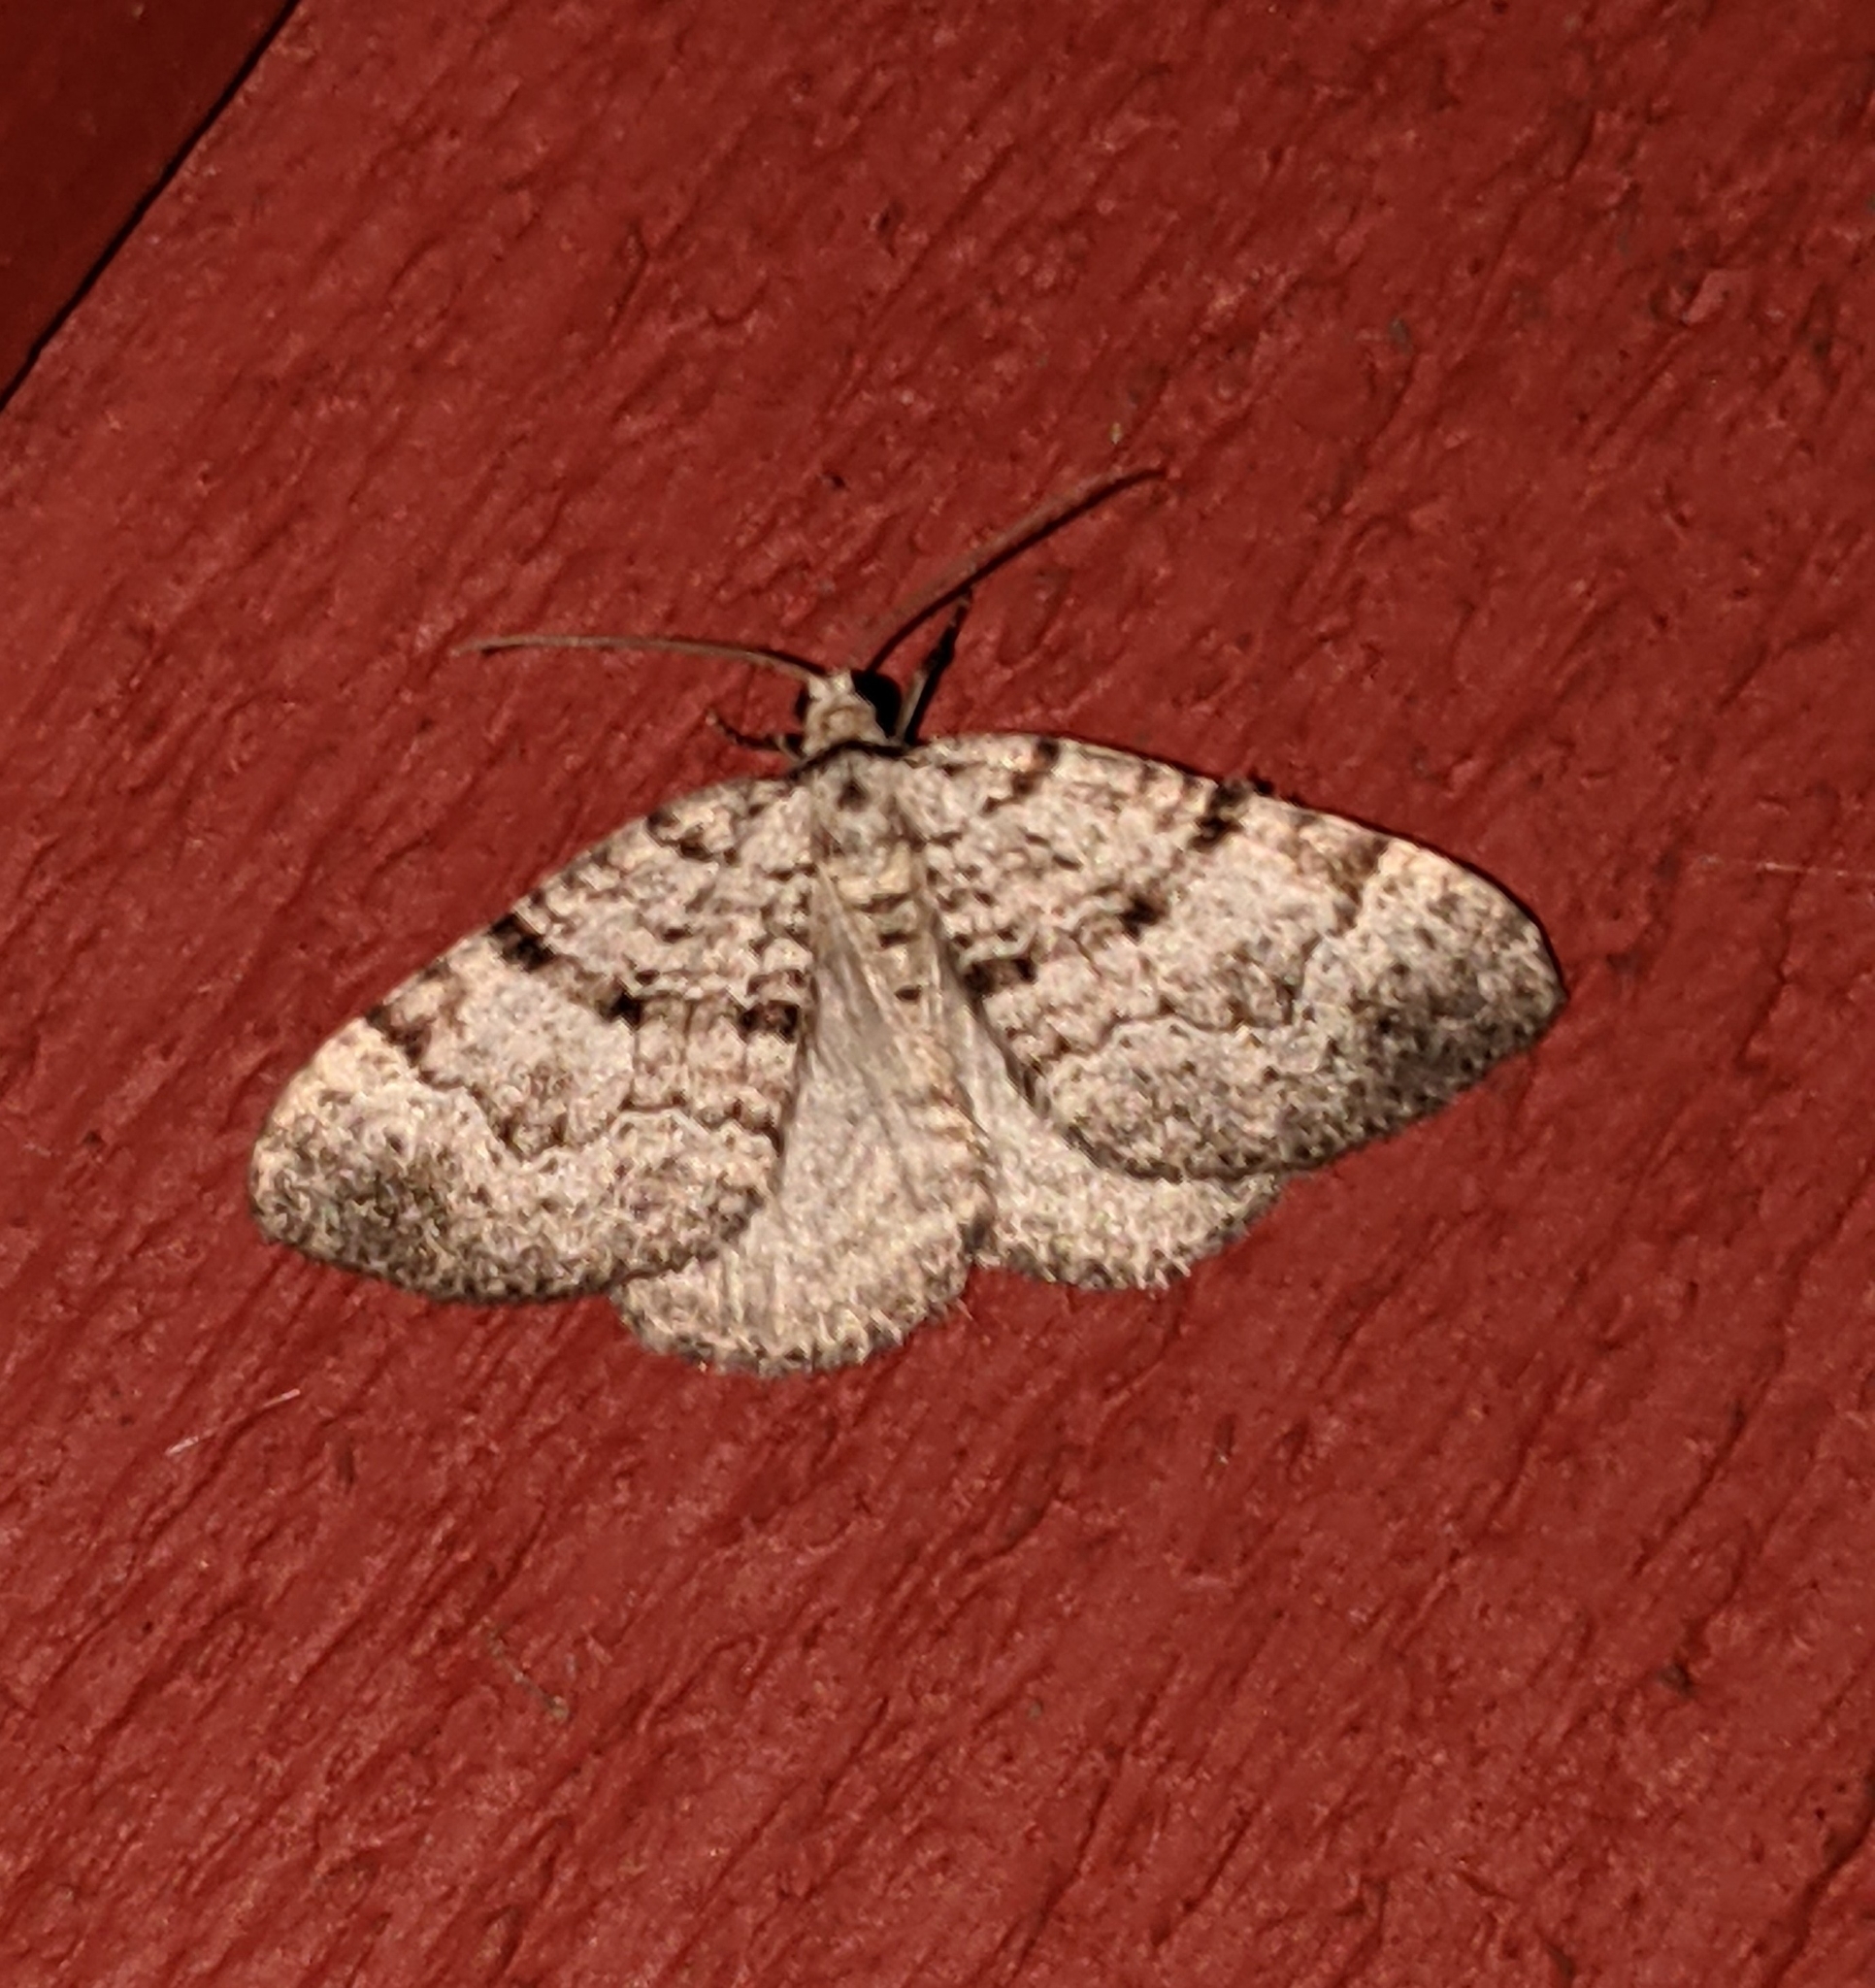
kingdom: Animalia
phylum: Arthropoda
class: Insecta
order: Lepidoptera
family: Geometridae
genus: Perizoma
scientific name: Perizoma curvilinea
